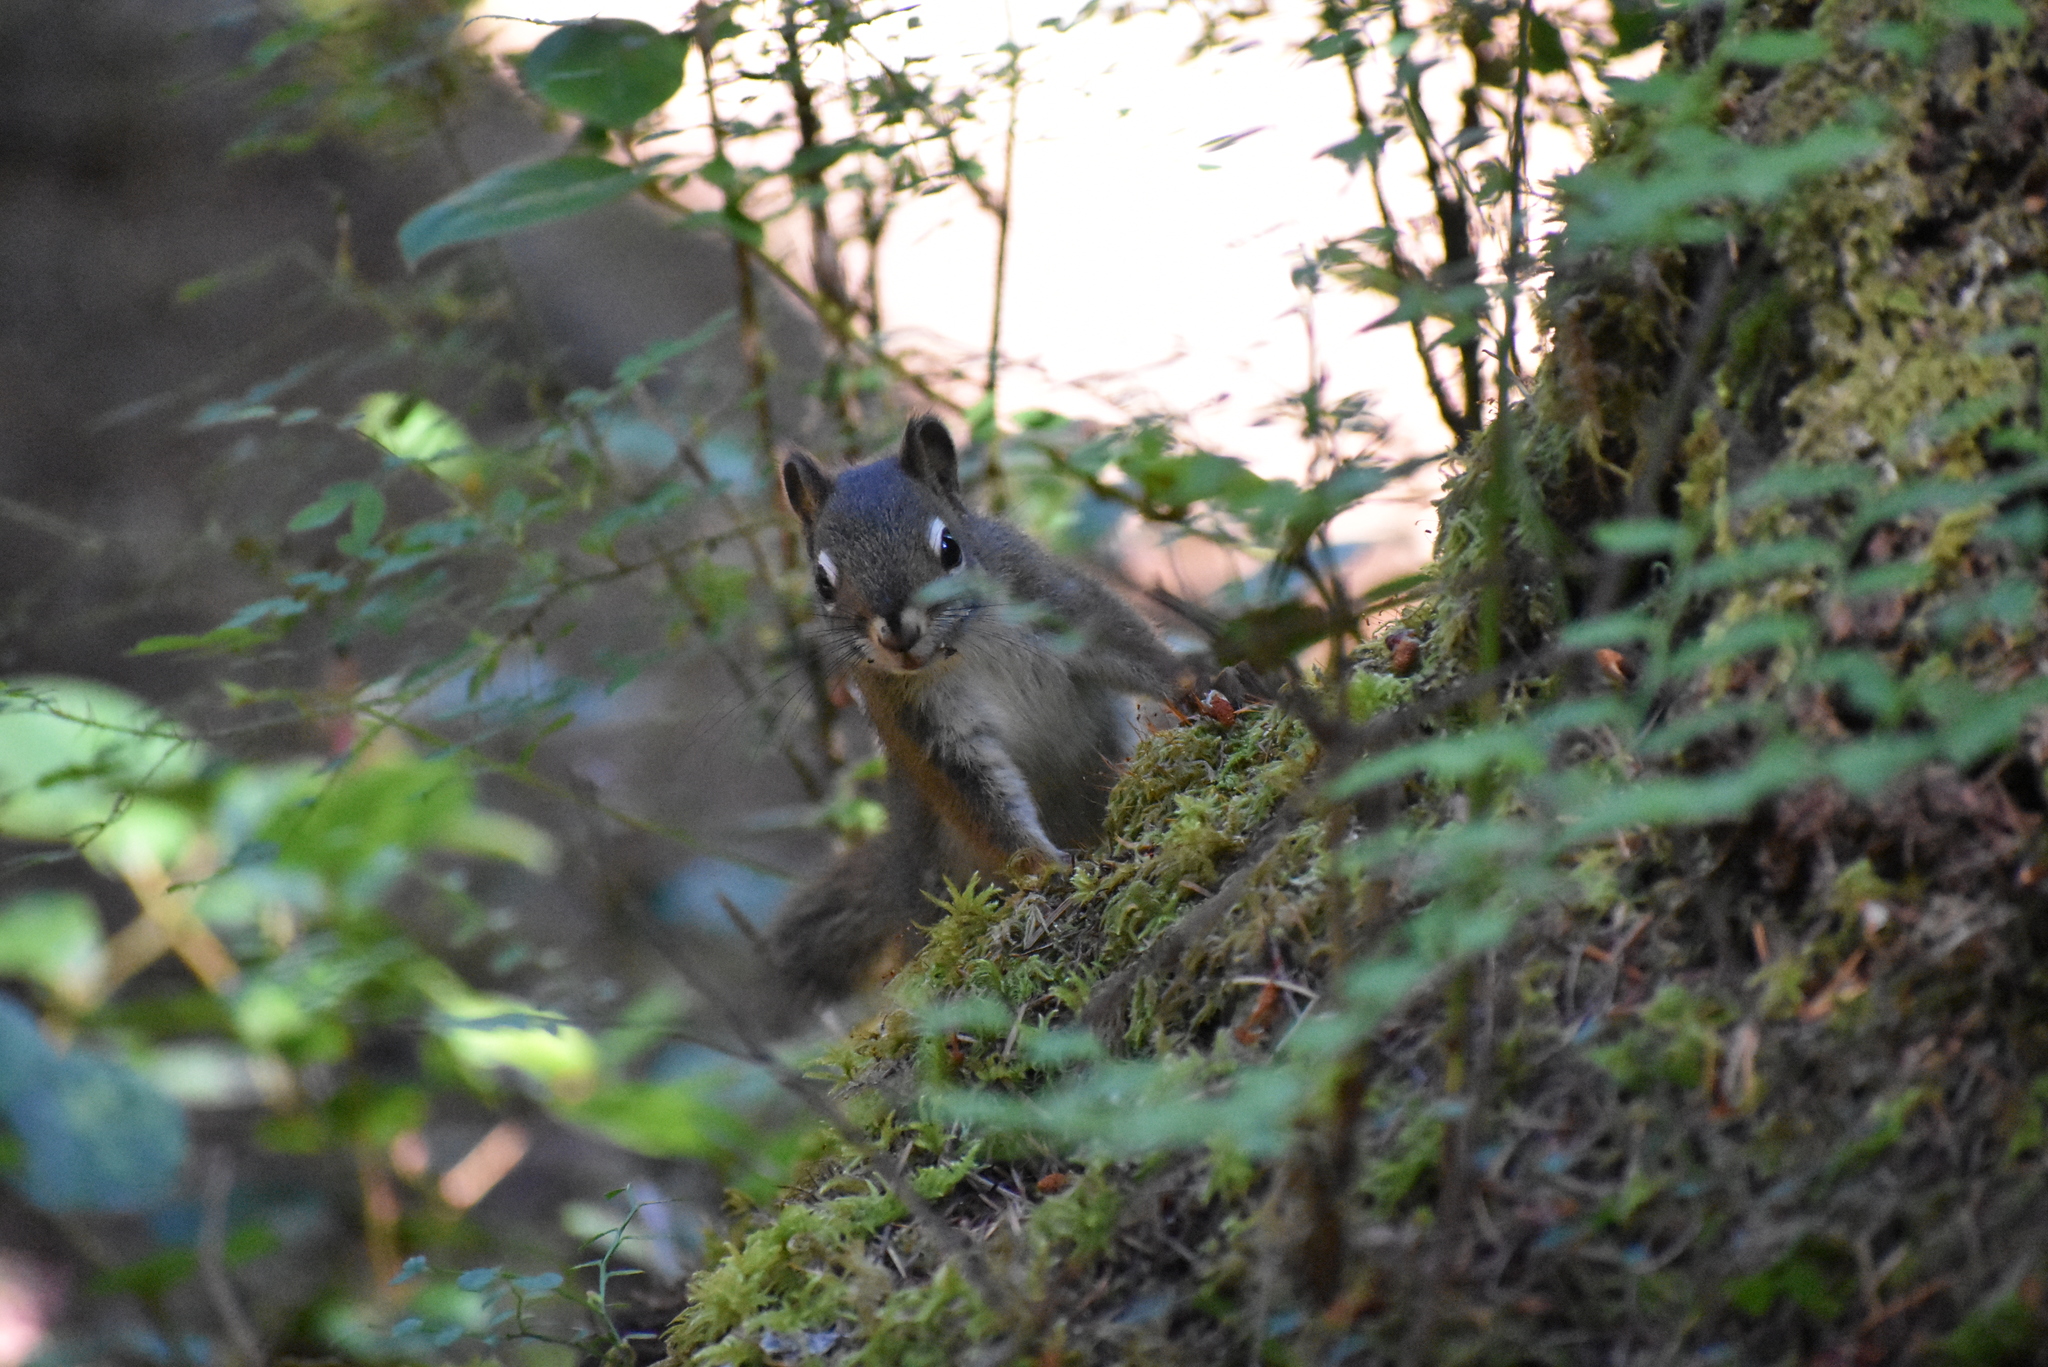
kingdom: Animalia
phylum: Chordata
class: Mammalia
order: Rodentia
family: Sciuridae
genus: Tamiasciurus
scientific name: Tamiasciurus hudsonicus
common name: Red squirrel
